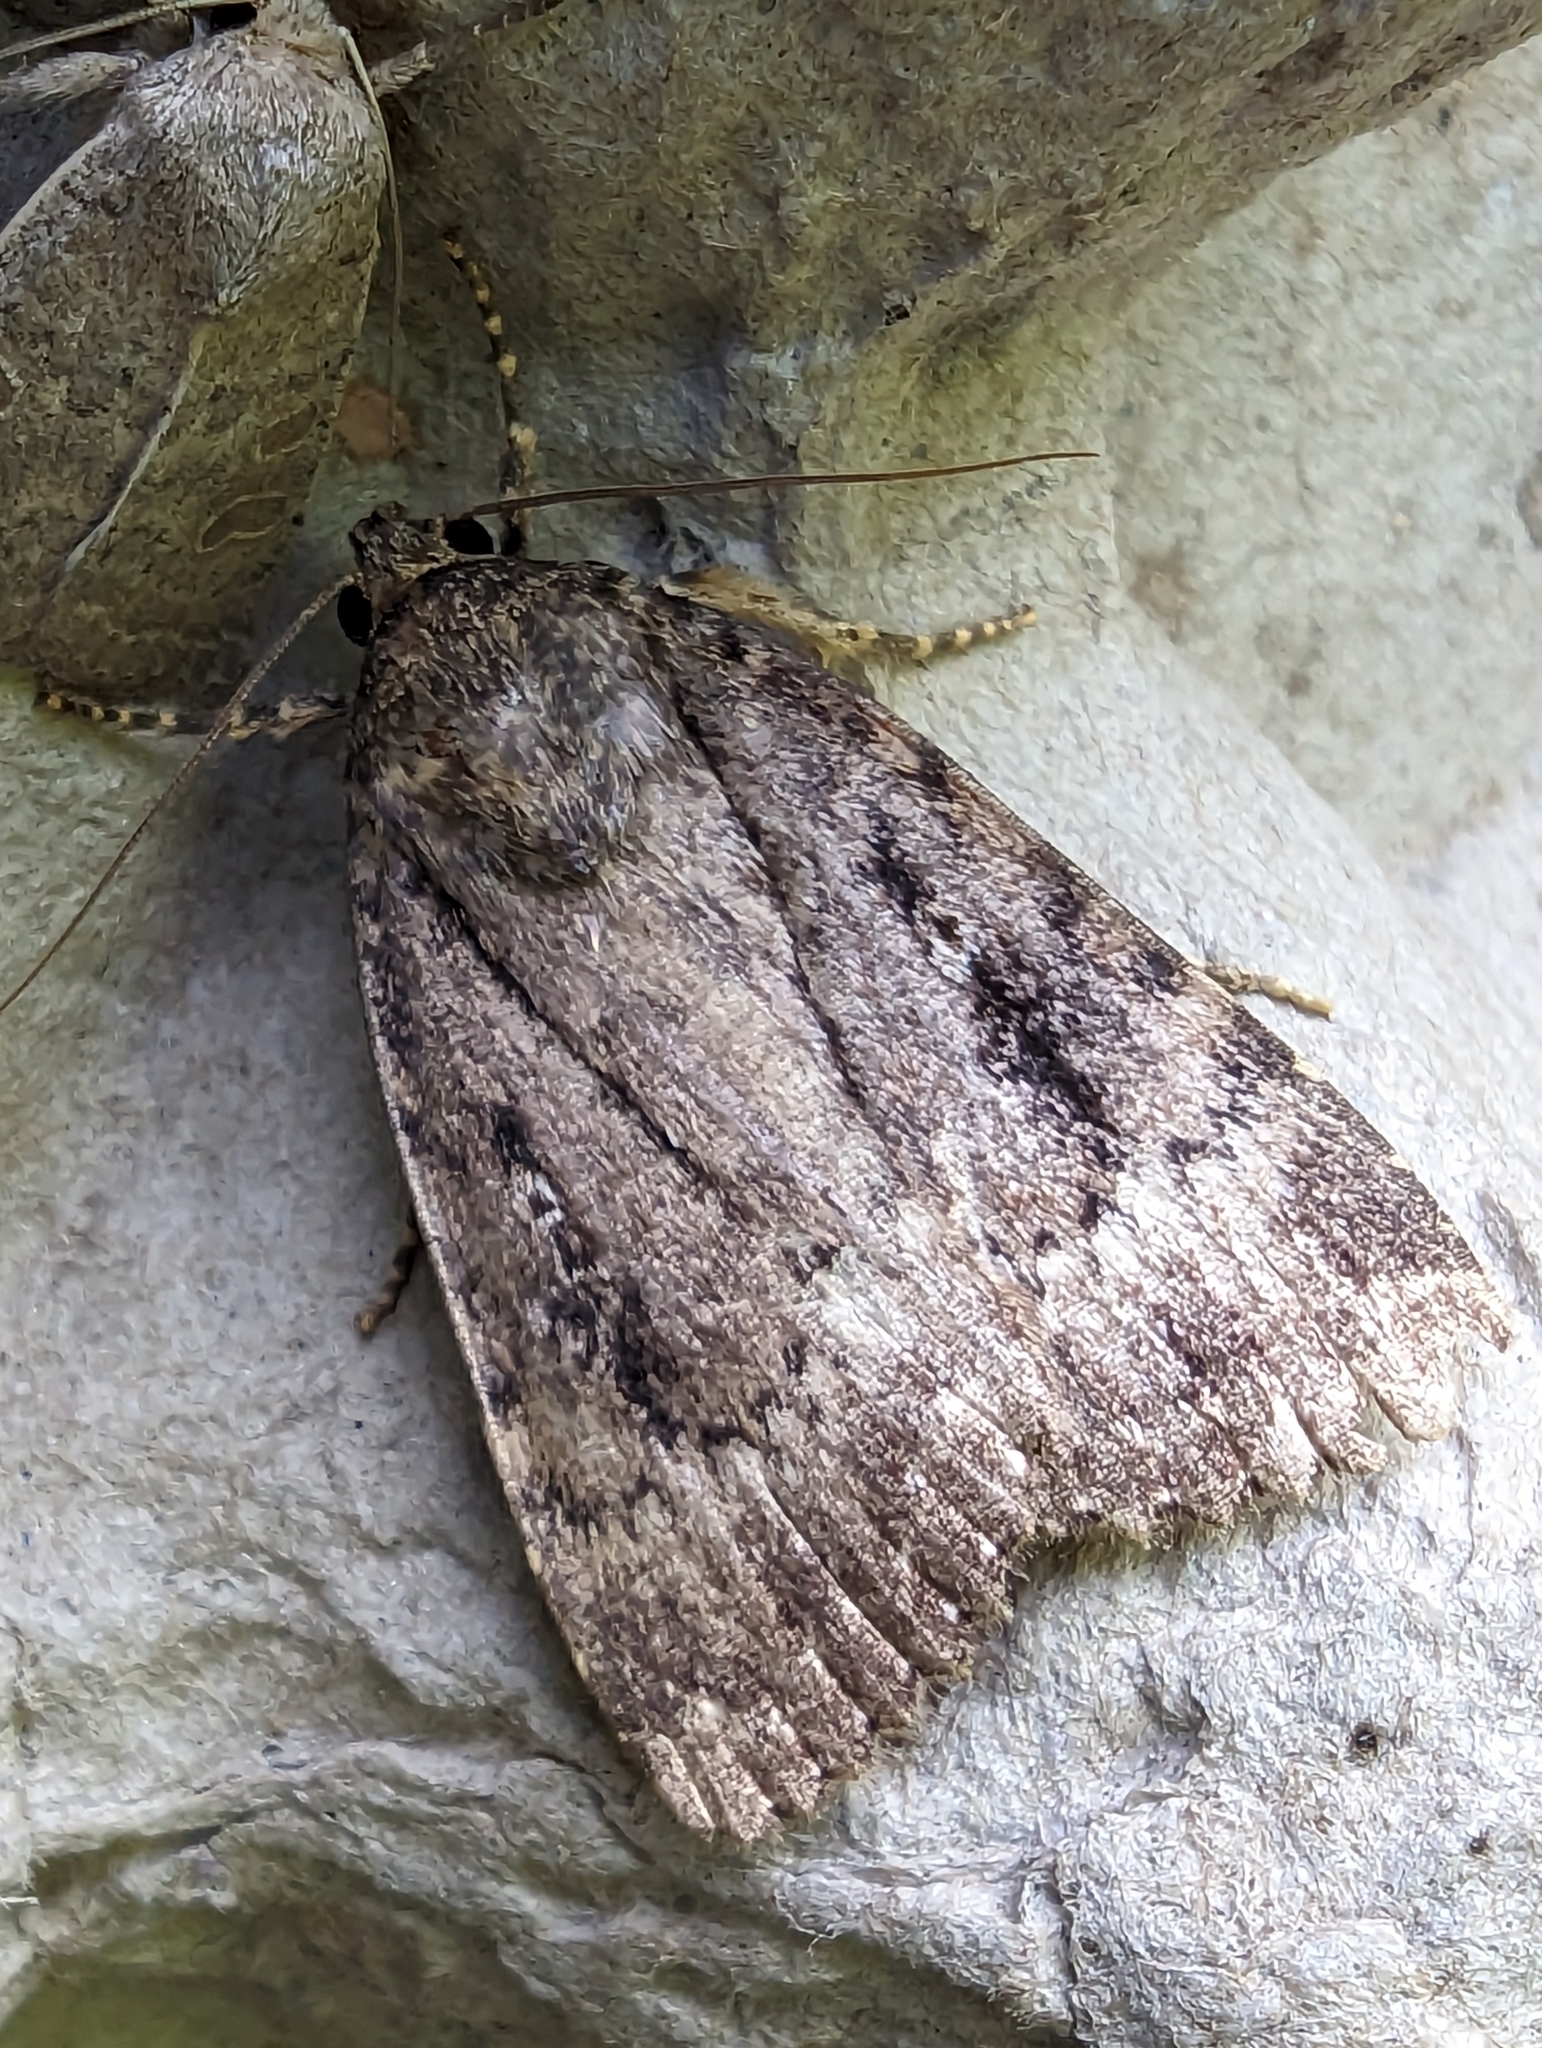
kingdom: Animalia
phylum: Arthropoda
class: Insecta
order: Lepidoptera
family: Noctuidae
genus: Amphipyra
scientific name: Amphipyra pyramidea
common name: Copper underwing
